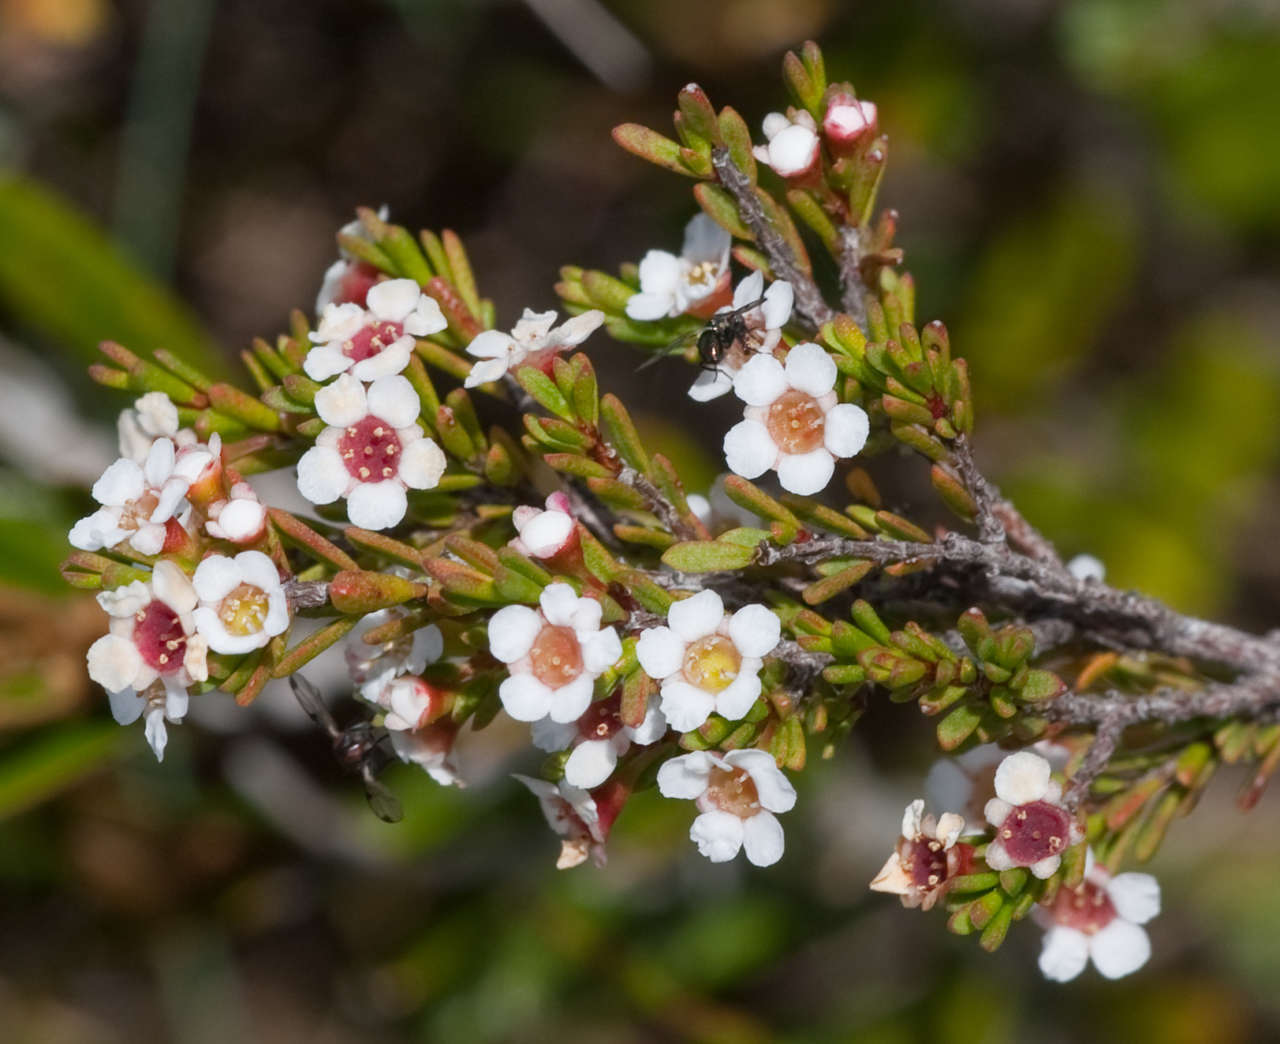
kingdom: Plantae
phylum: Tracheophyta
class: Magnoliopsida
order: Myrtales
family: Myrtaceae
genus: Baeckea
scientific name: Baeckea gunniana
